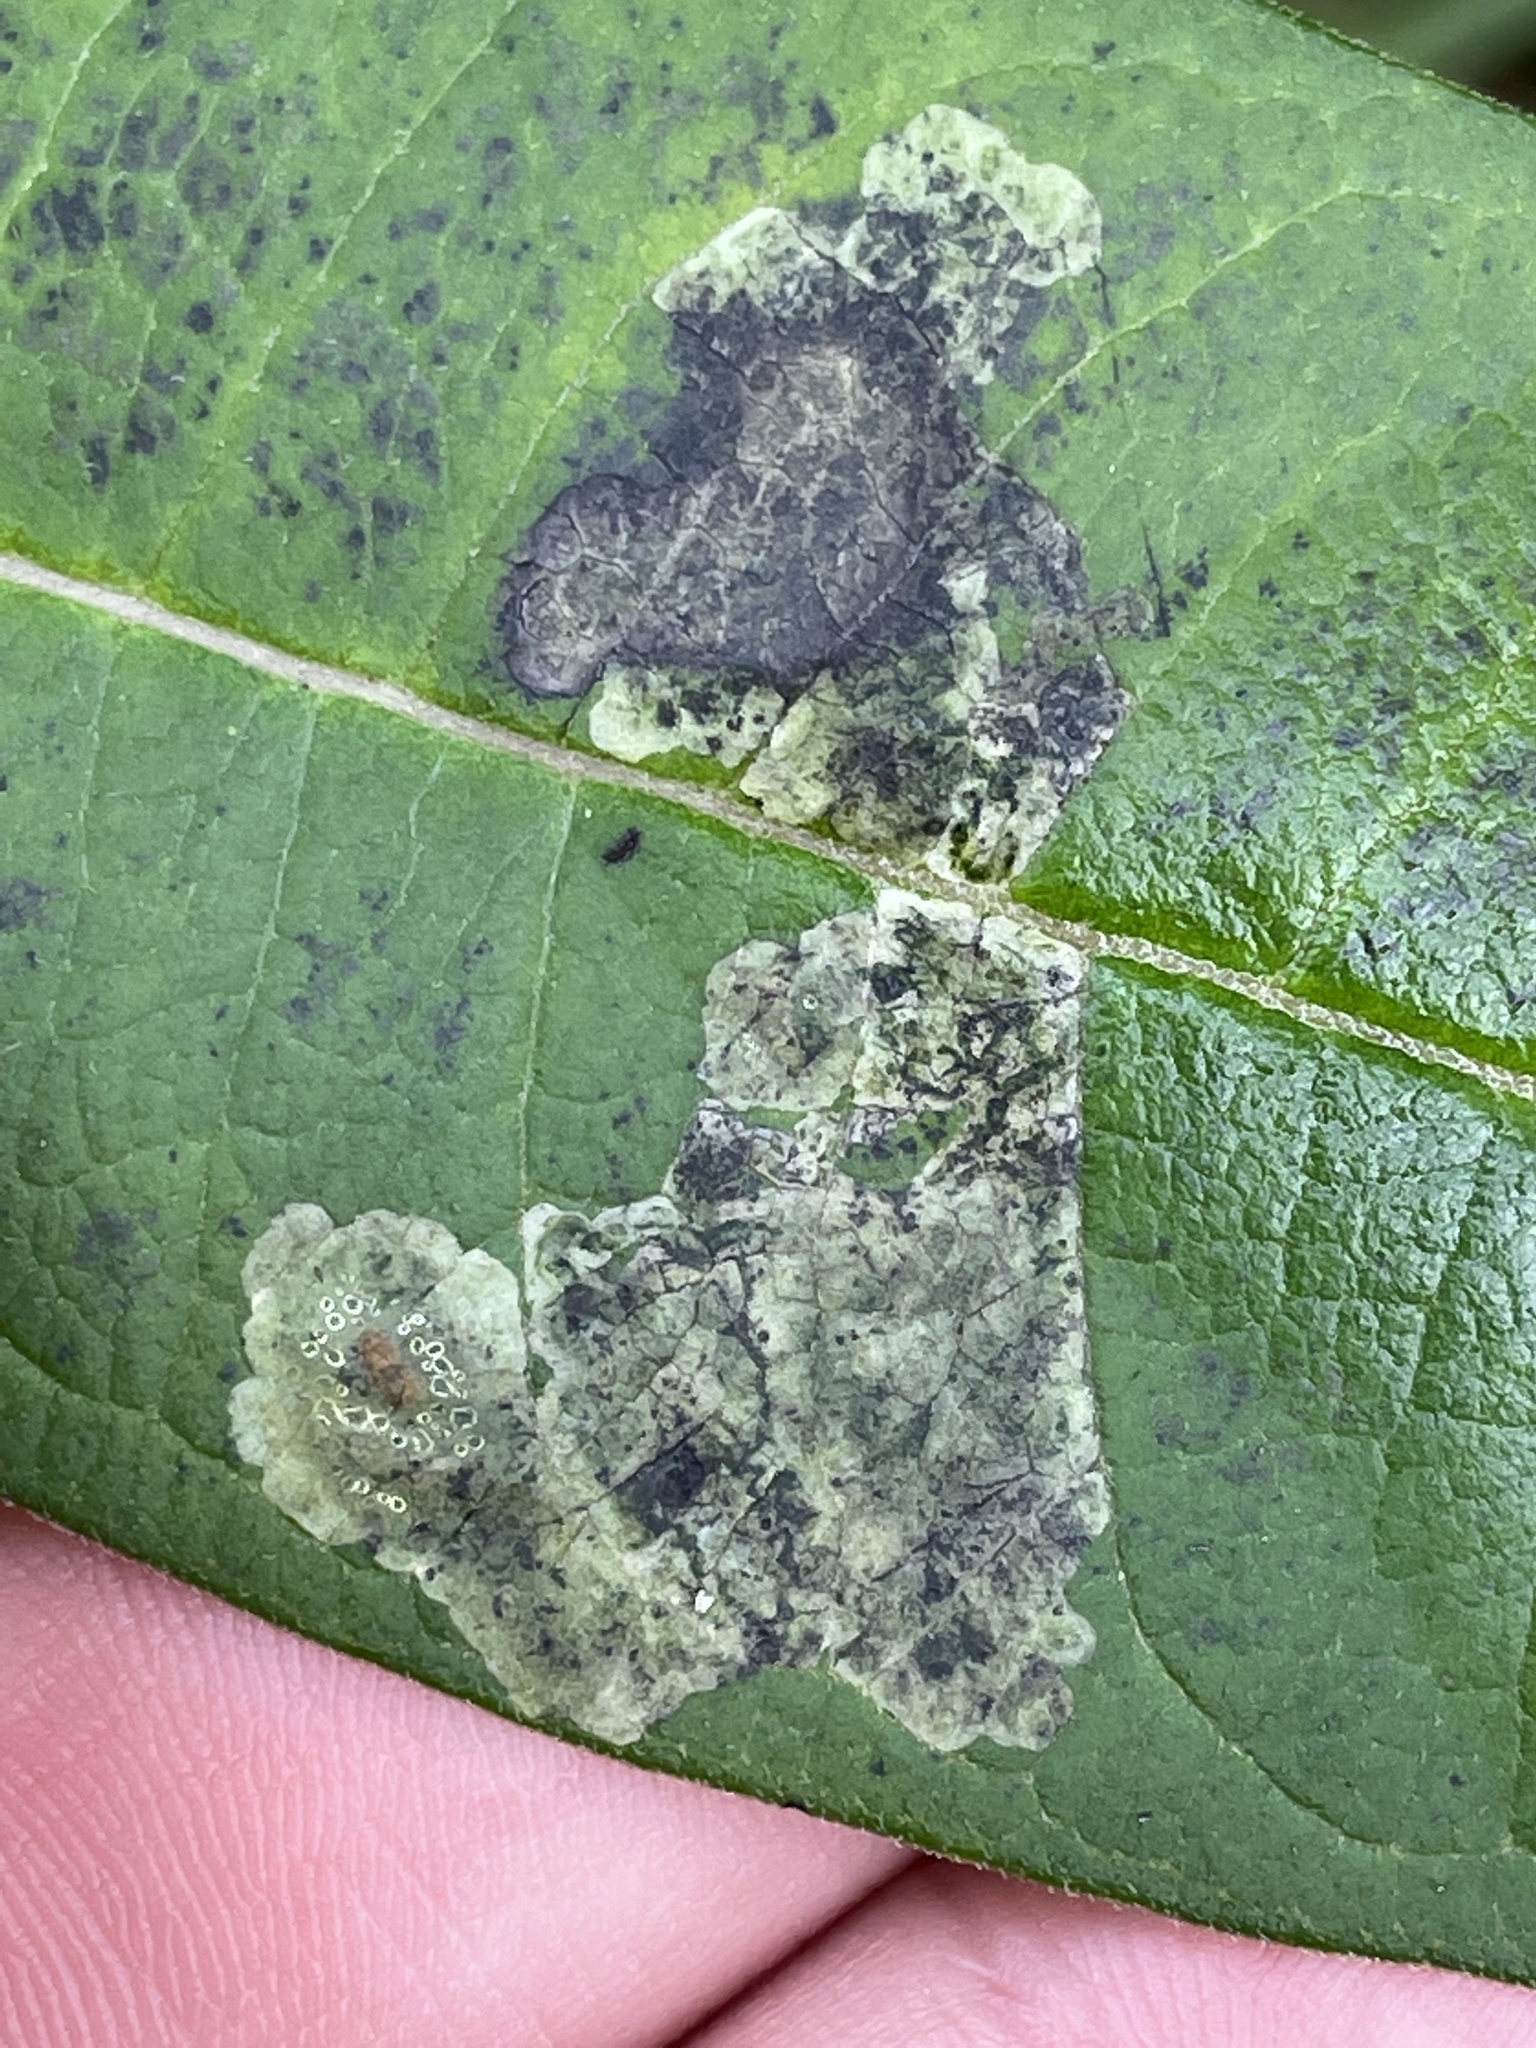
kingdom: Plantae
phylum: Tracheophyta
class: Magnoliopsida
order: Gentianales
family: Apocynaceae
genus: Asclepias
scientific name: Asclepias syriaca
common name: Common milkweed
